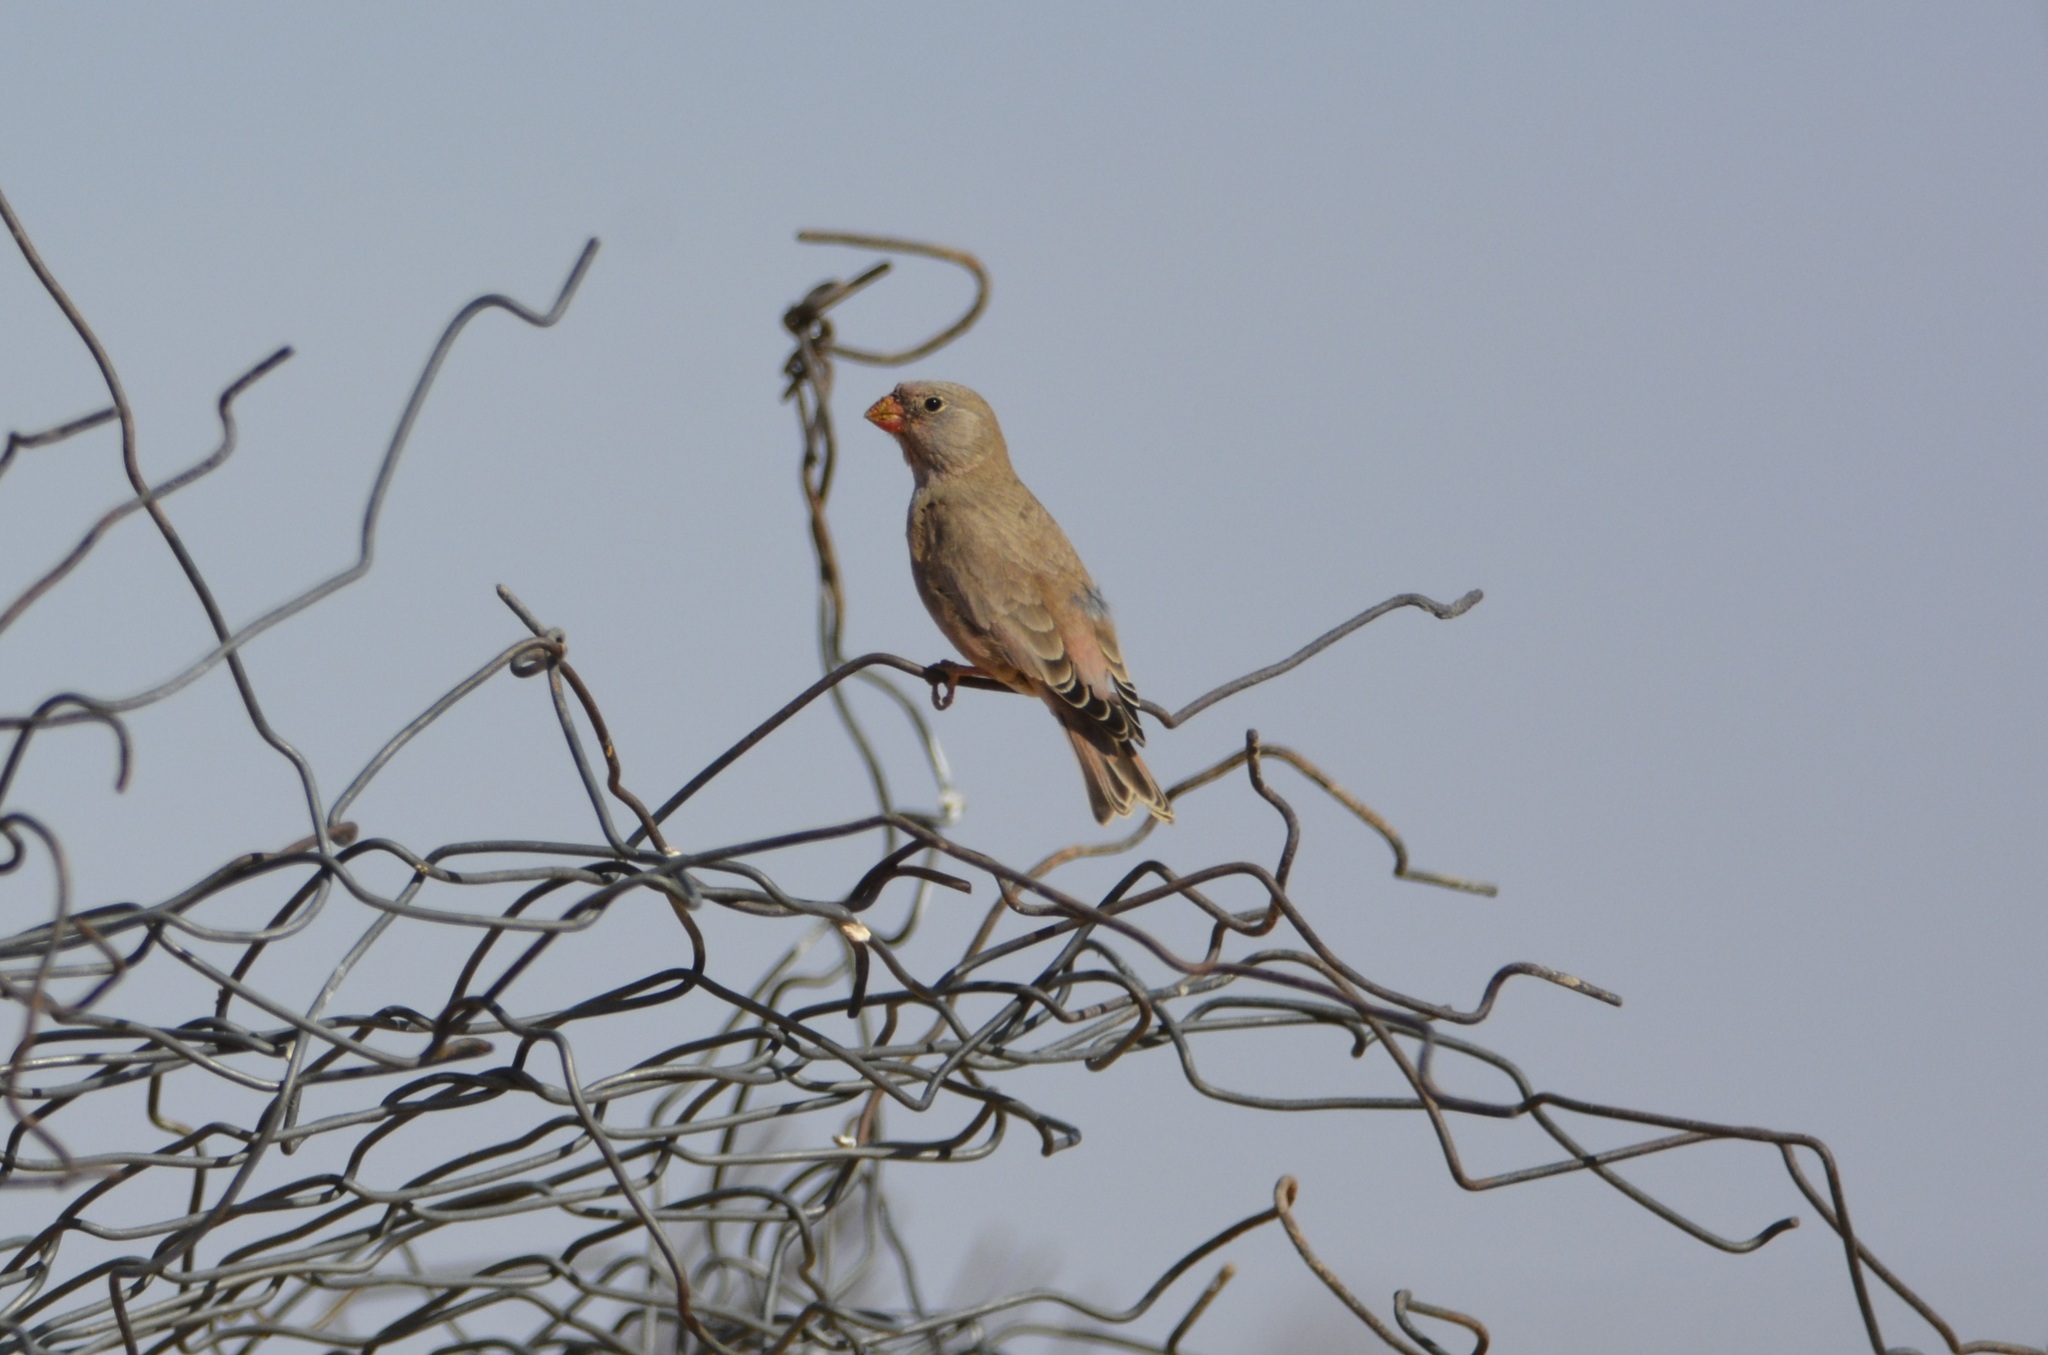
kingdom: Animalia
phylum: Chordata
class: Aves
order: Passeriformes
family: Fringillidae
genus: Bucanetes
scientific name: Bucanetes githagineus
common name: Trumpeter finch
